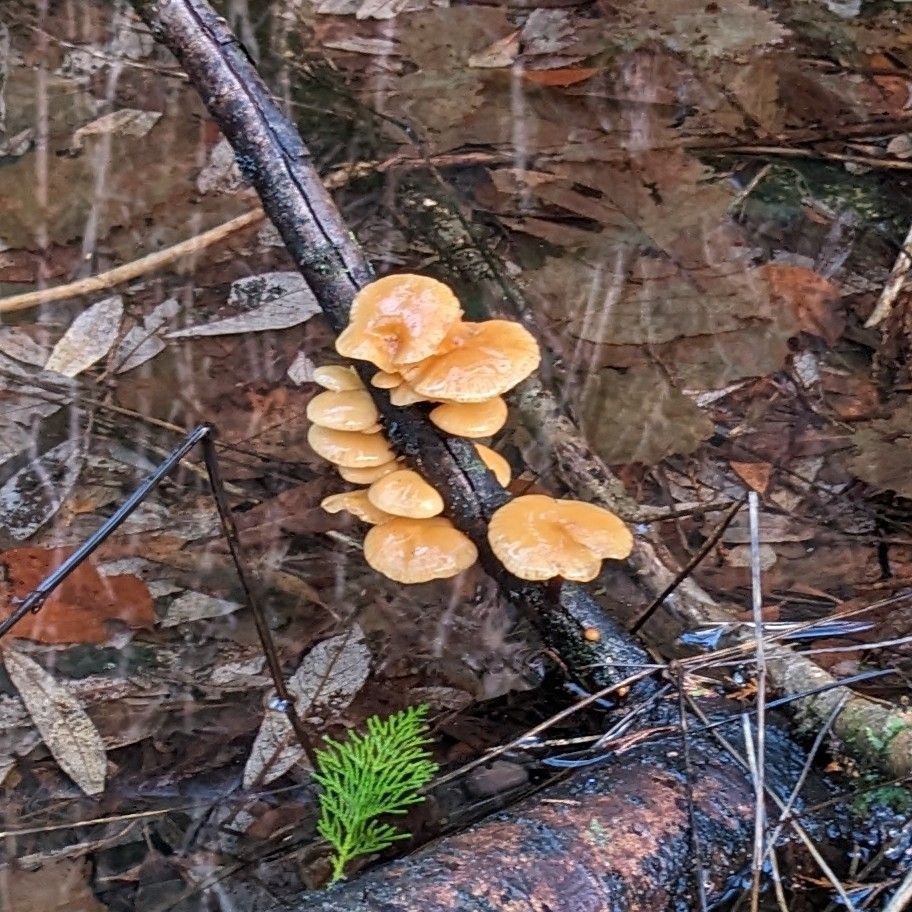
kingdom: Fungi
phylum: Basidiomycota
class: Agaricomycetes
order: Agaricales
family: Physalacriaceae
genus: Flammulina
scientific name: Flammulina
